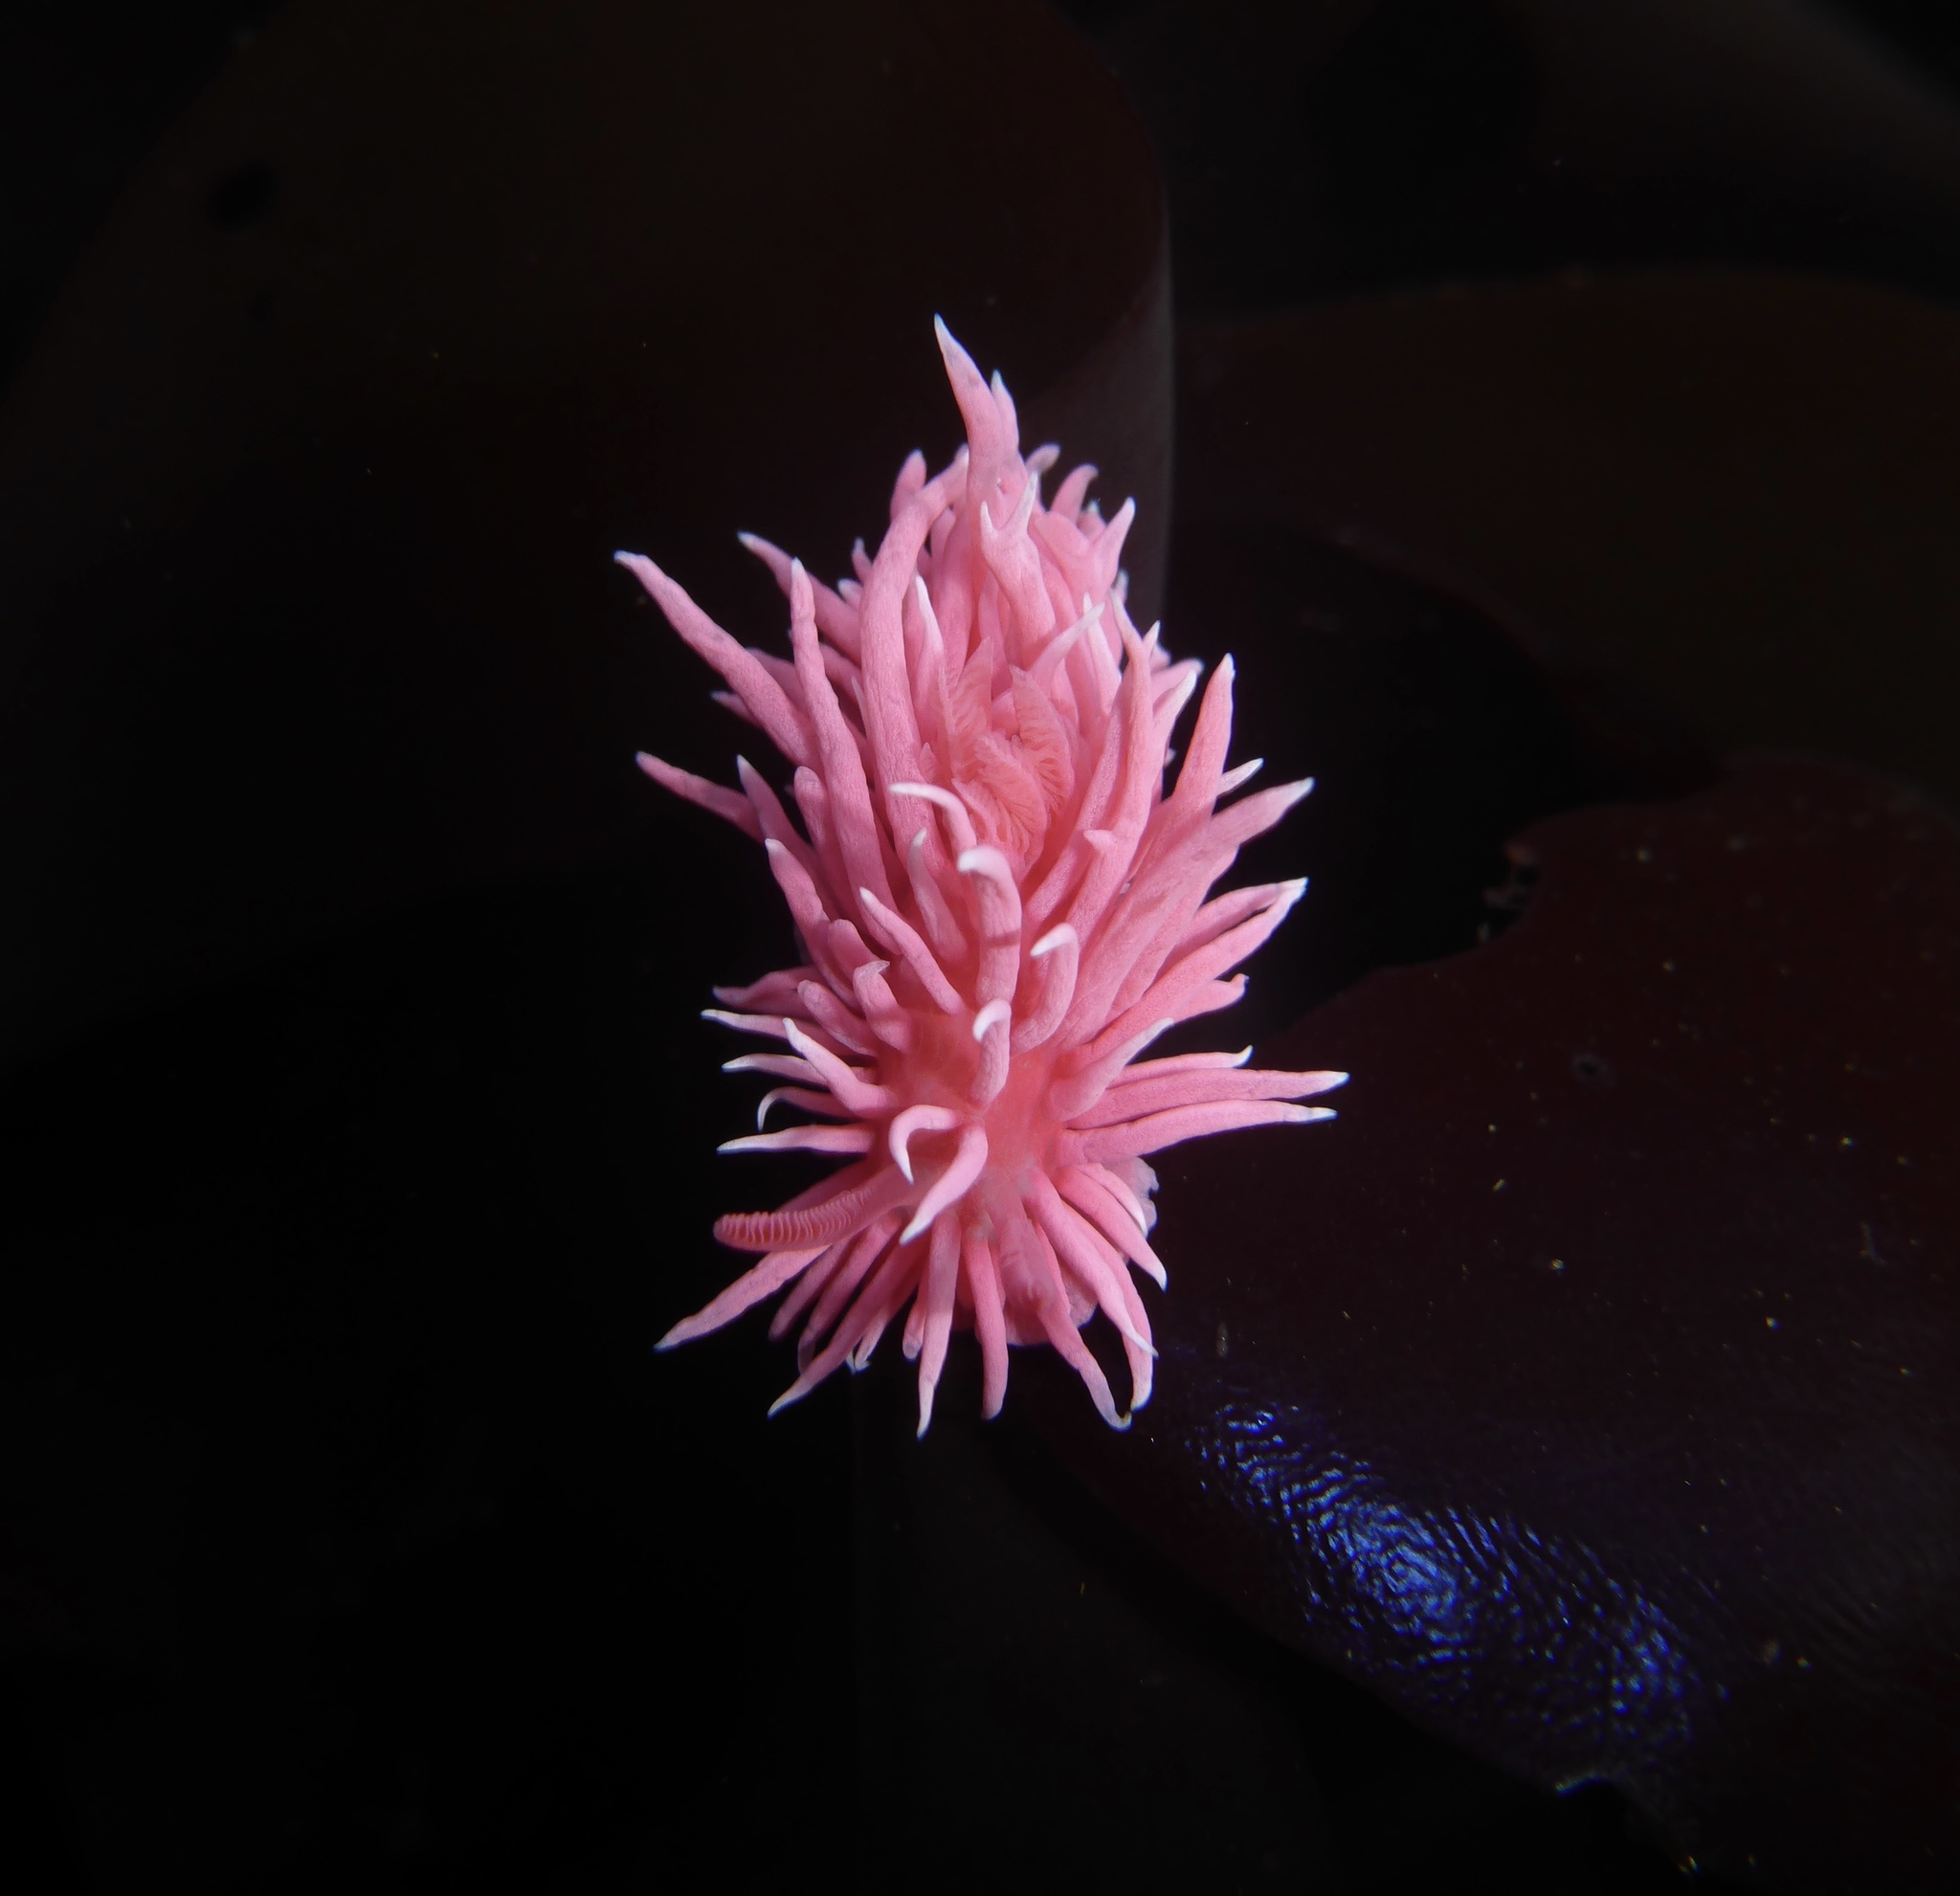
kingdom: Animalia
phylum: Mollusca
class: Gastropoda
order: Nudibranchia
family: Goniodorididae
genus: Okenia
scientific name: Okenia
